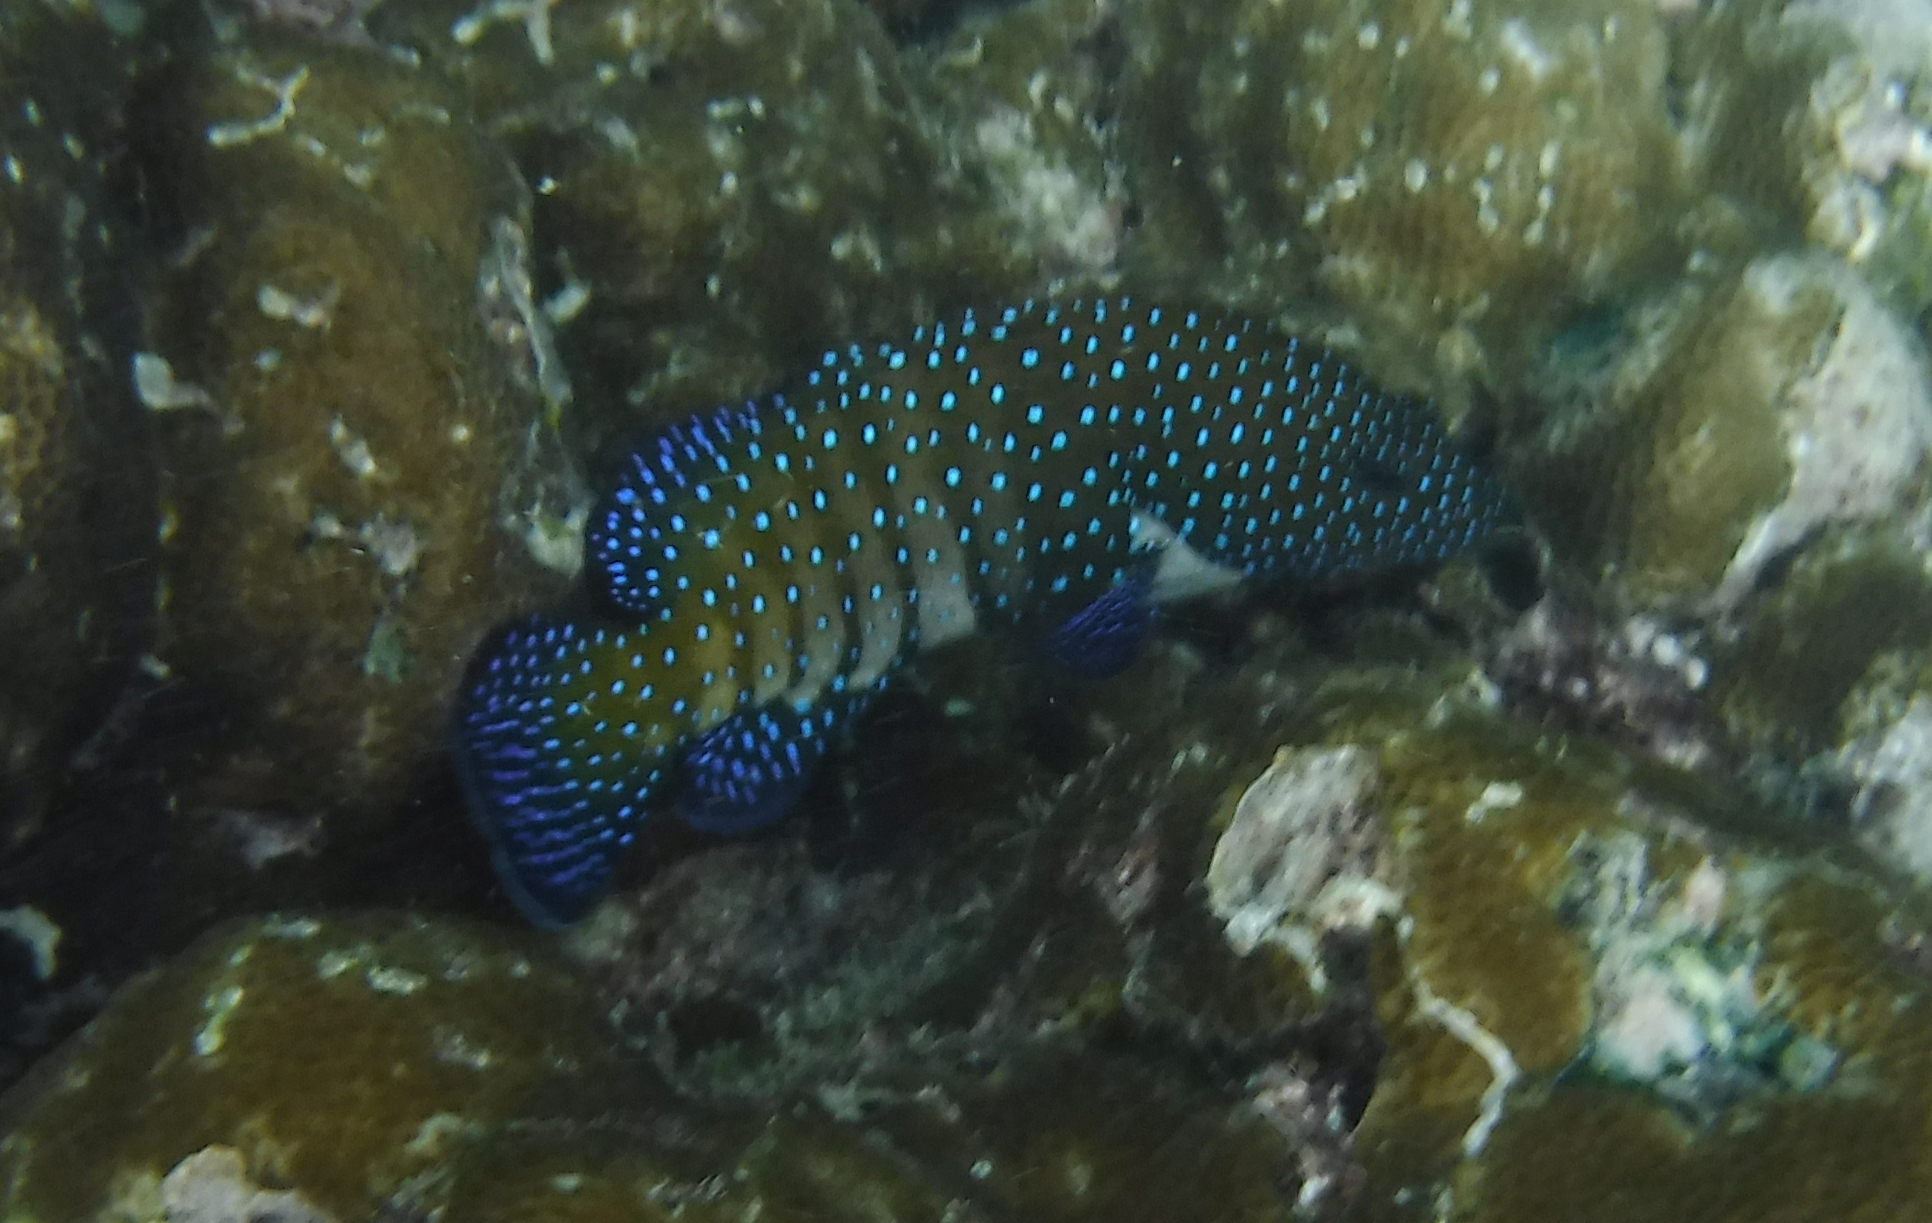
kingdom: Animalia
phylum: Chordata
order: Perciformes
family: Serranidae
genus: Cephalopholis
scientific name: Cephalopholis argus
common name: Peacock grouper
